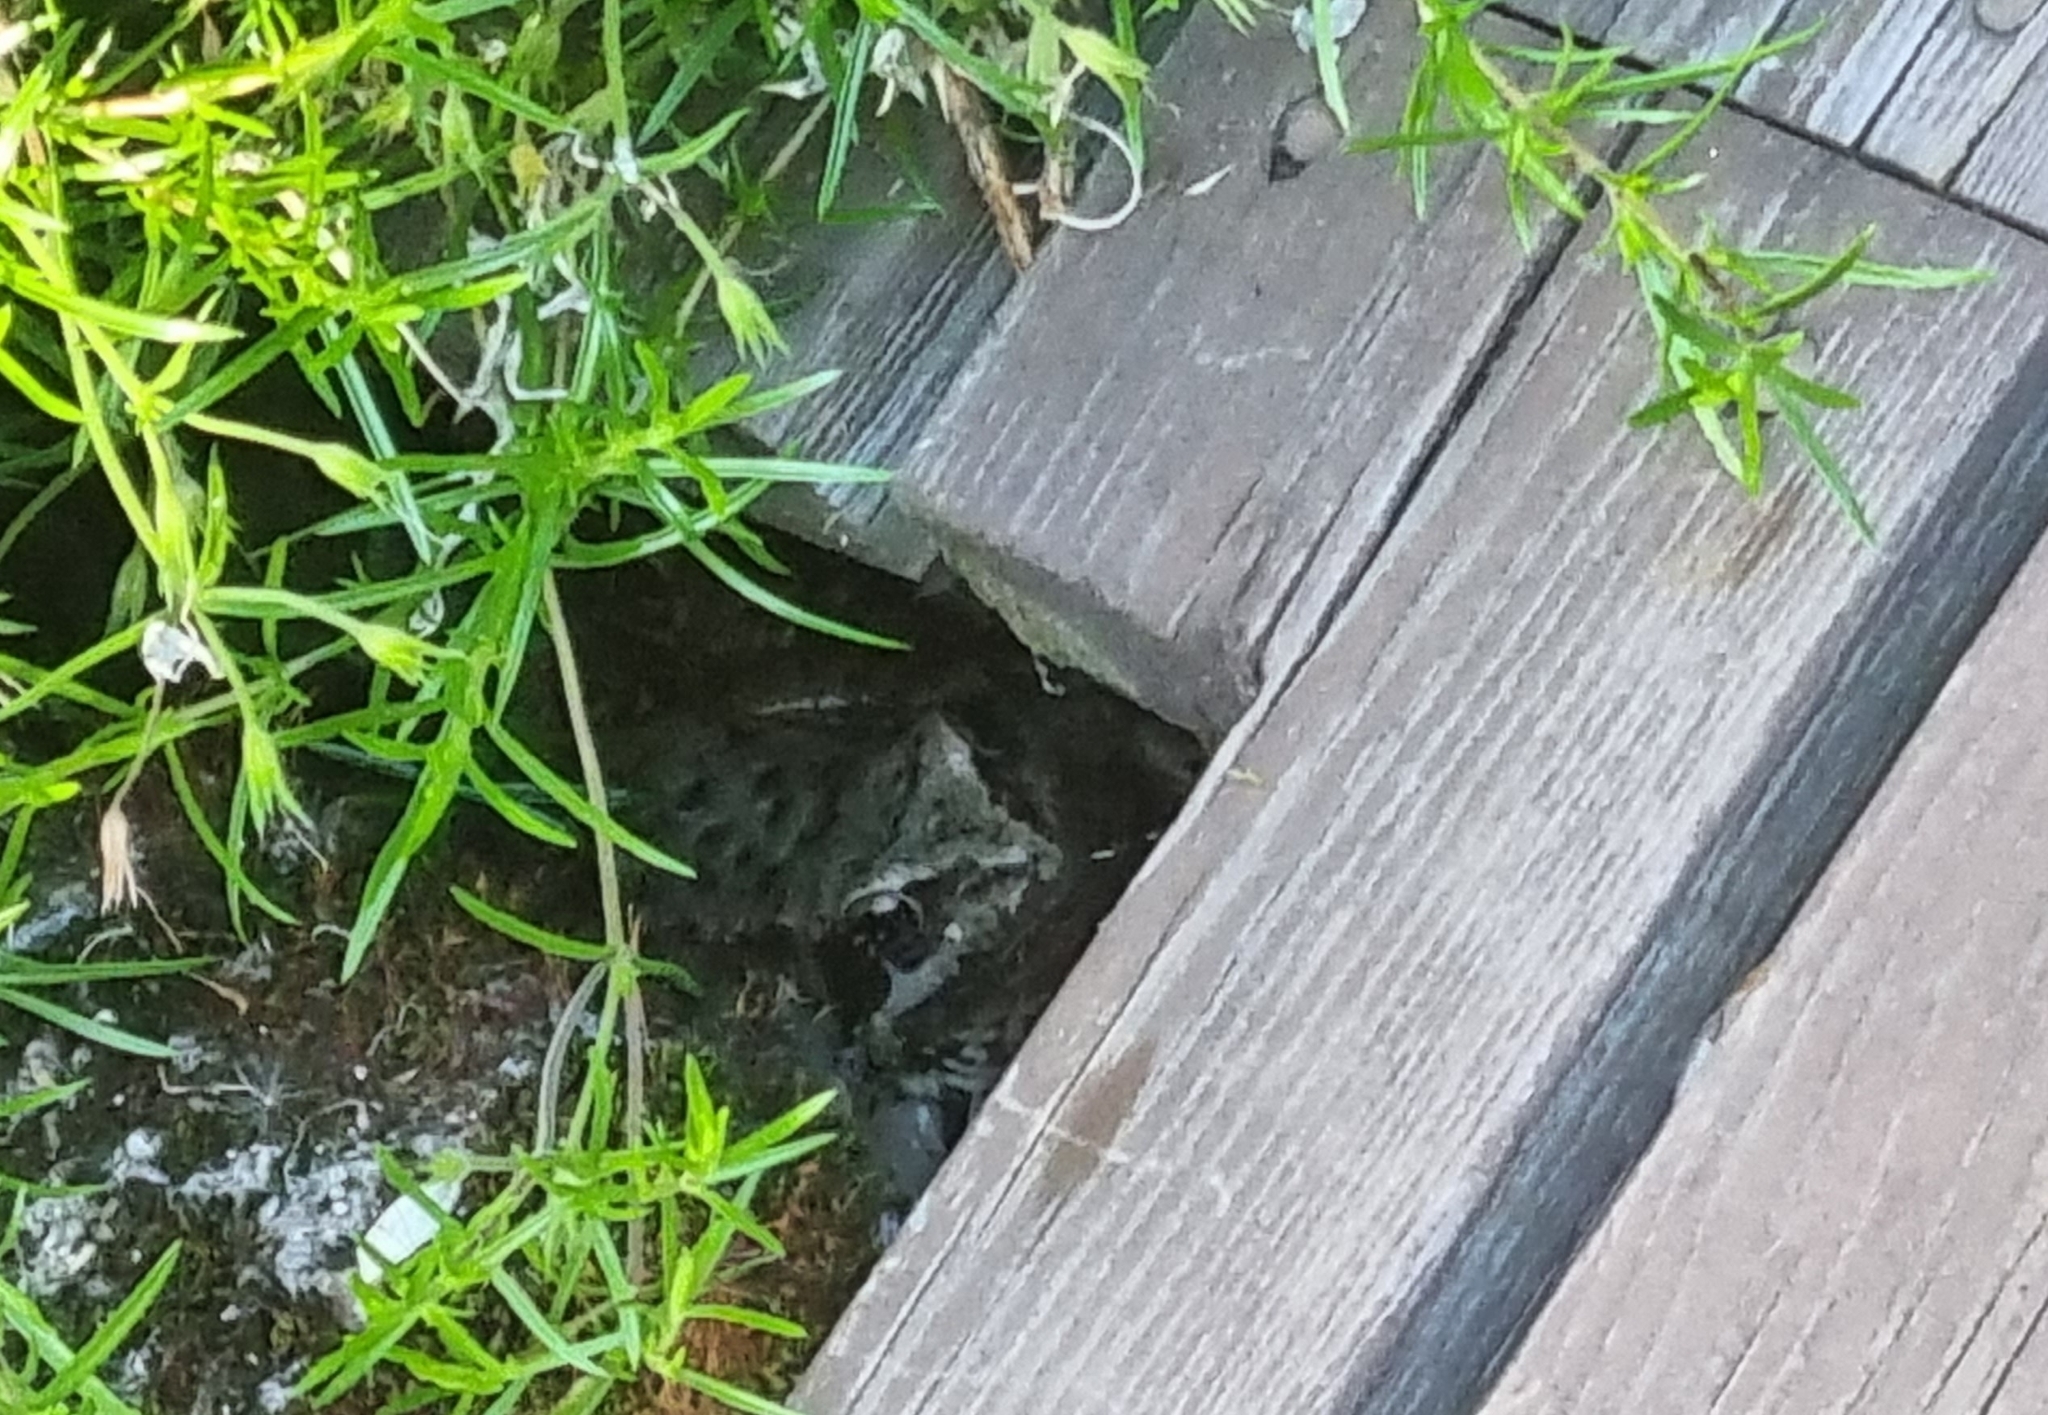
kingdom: Animalia
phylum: Chordata
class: Amphibia
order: Anura
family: Ranidae
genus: Rana
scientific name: Rana temporaria
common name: Common frog
